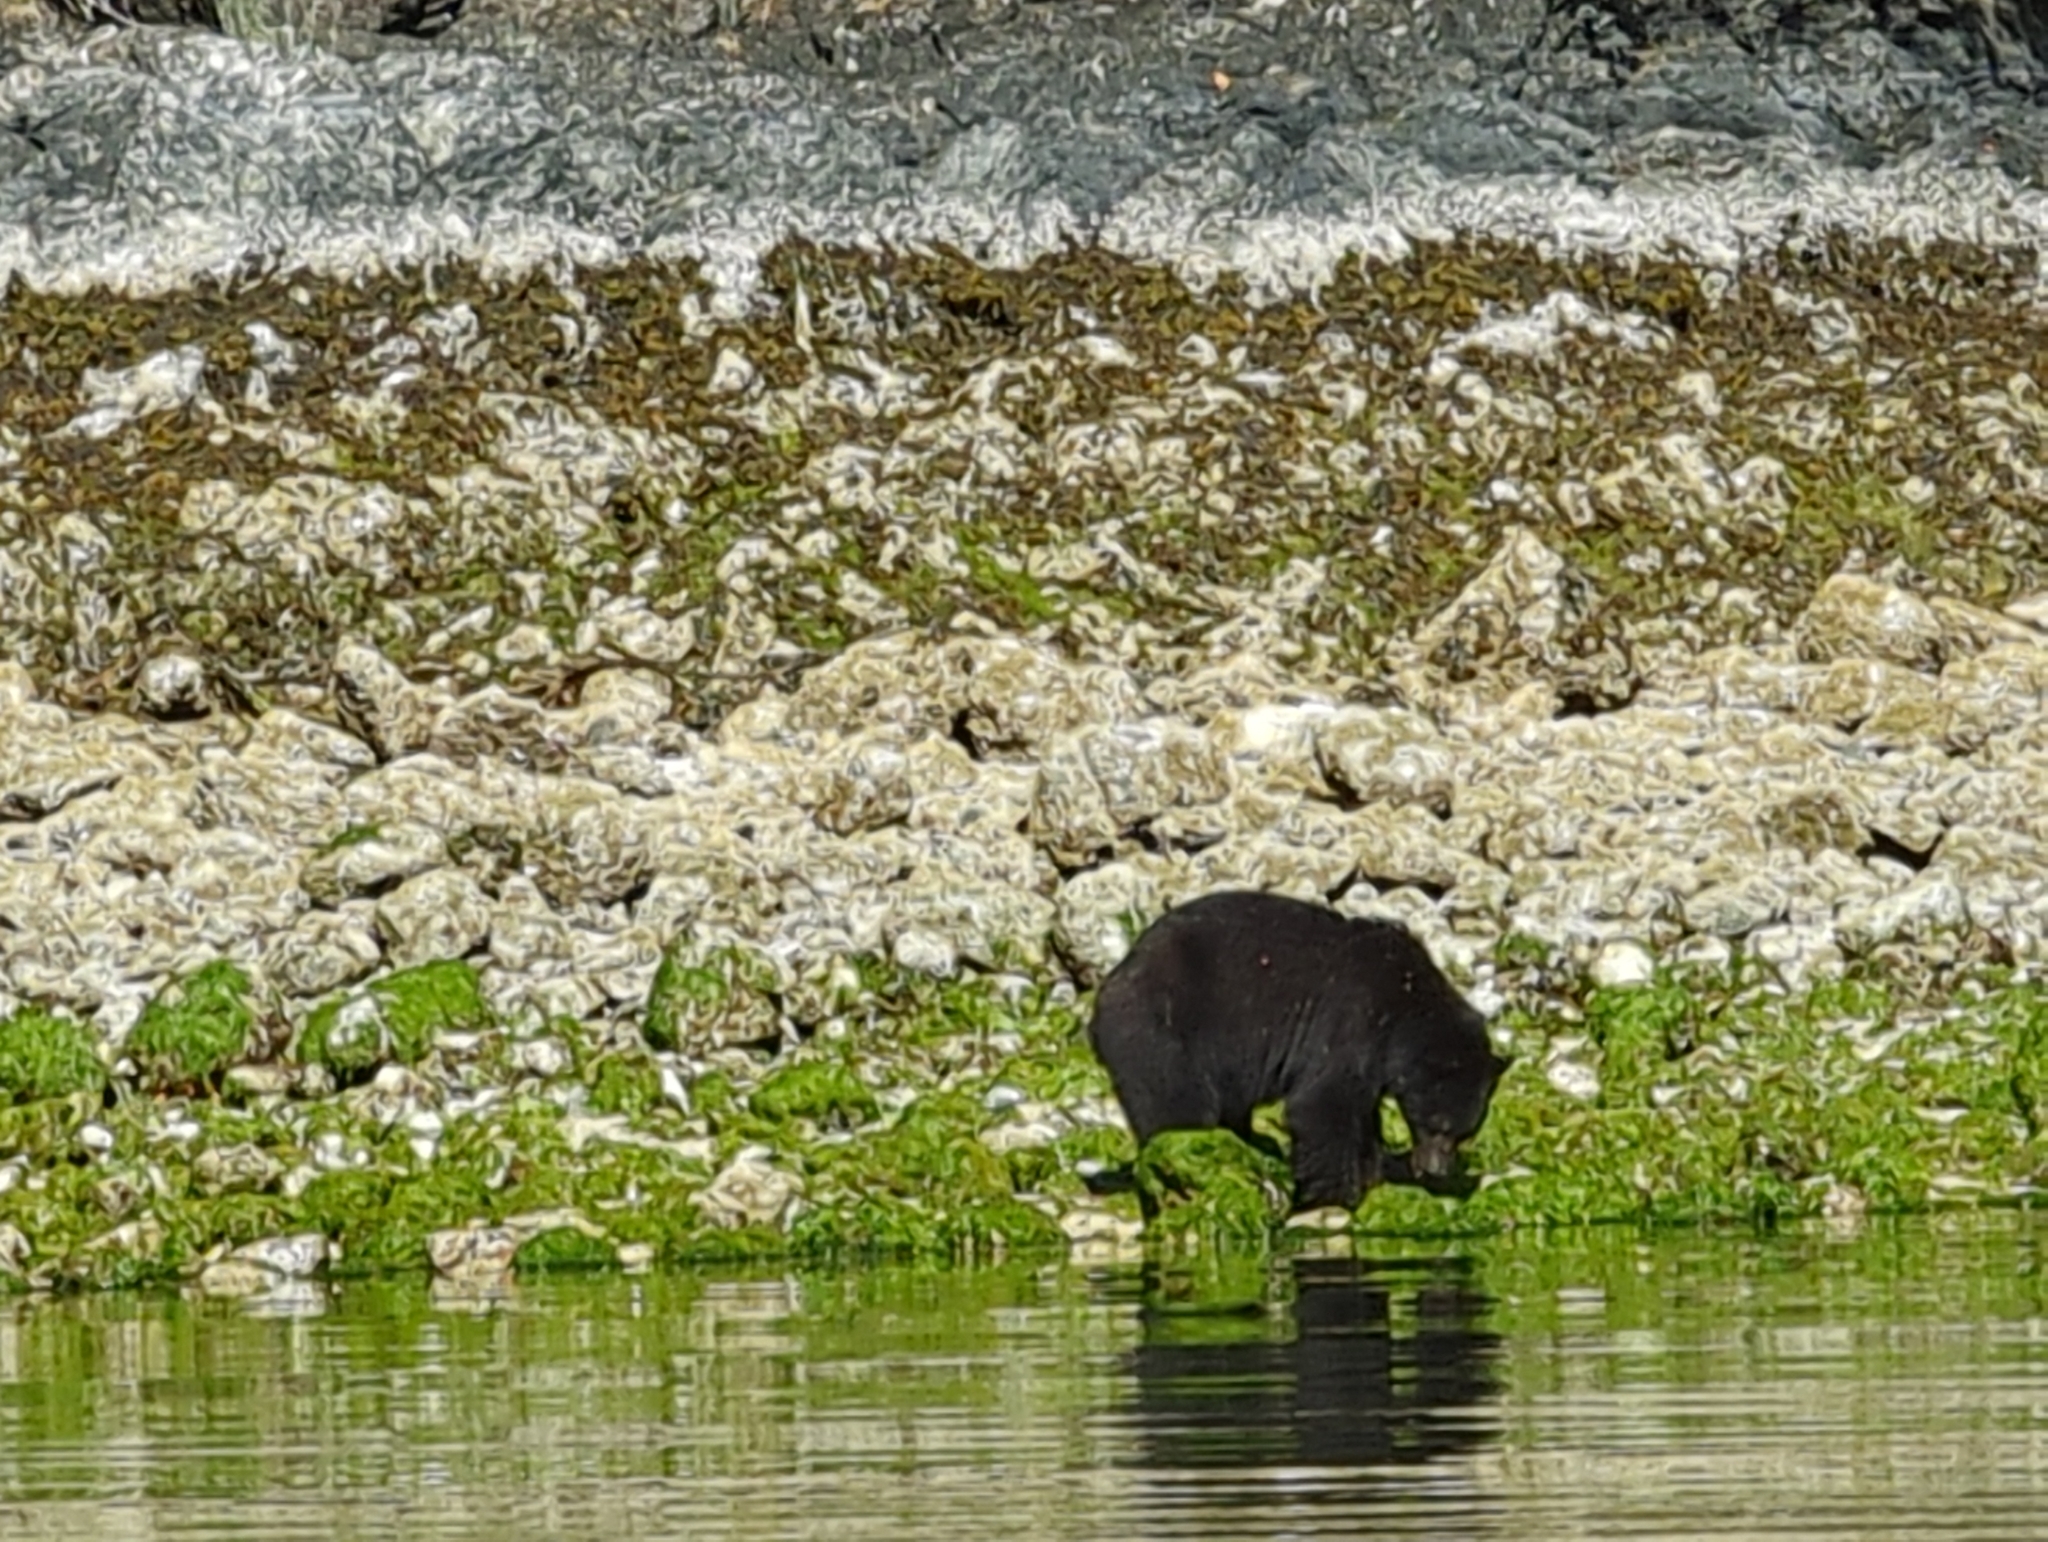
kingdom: Animalia
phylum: Chordata
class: Mammalia
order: Carnivora
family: Ursidae
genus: Ursus
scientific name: Ursus americanus
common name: American black bear
